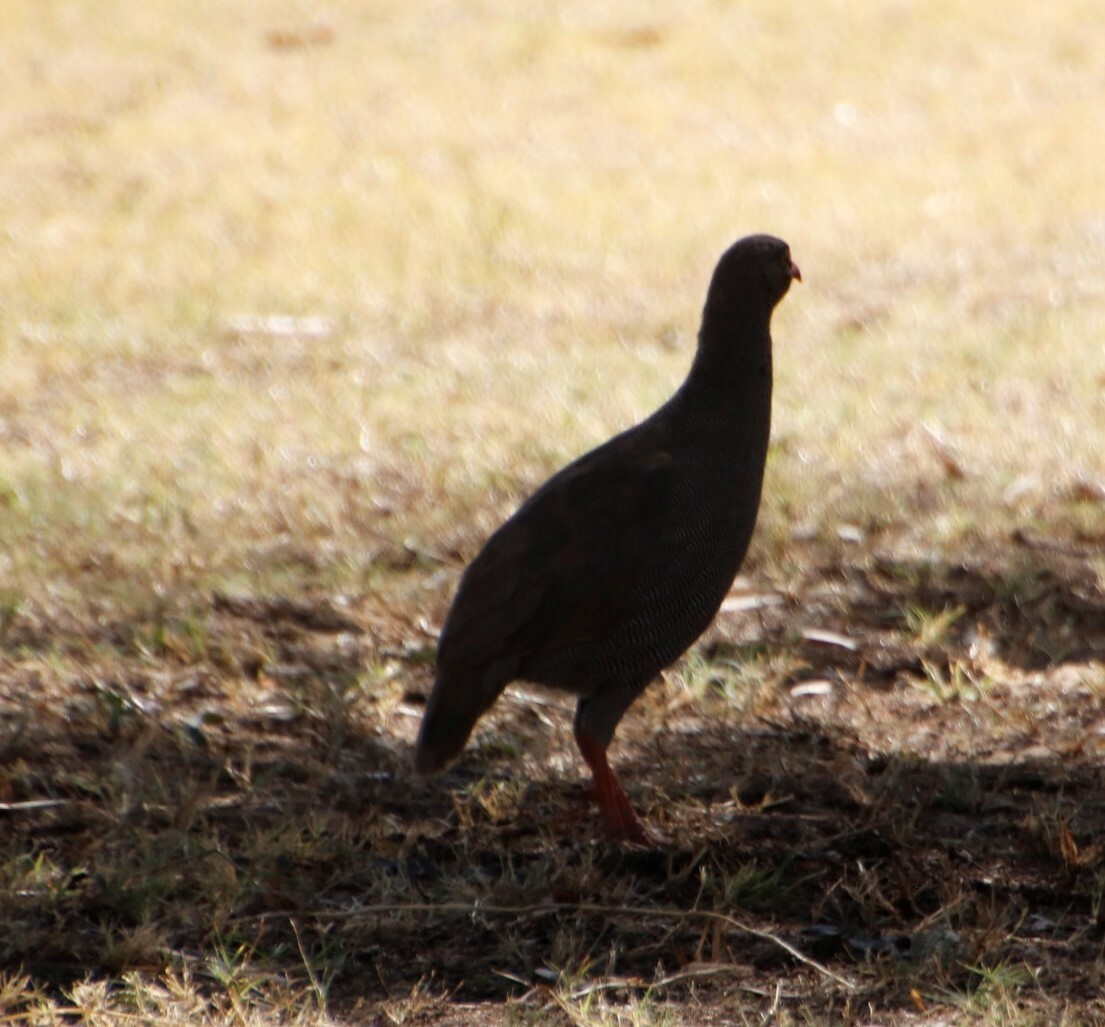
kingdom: Animalia
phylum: Chordata
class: Aves
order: Galliformes
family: Phasianidae
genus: Pternistis
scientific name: Pternistis adspersus
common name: Red-billed spurfowl
